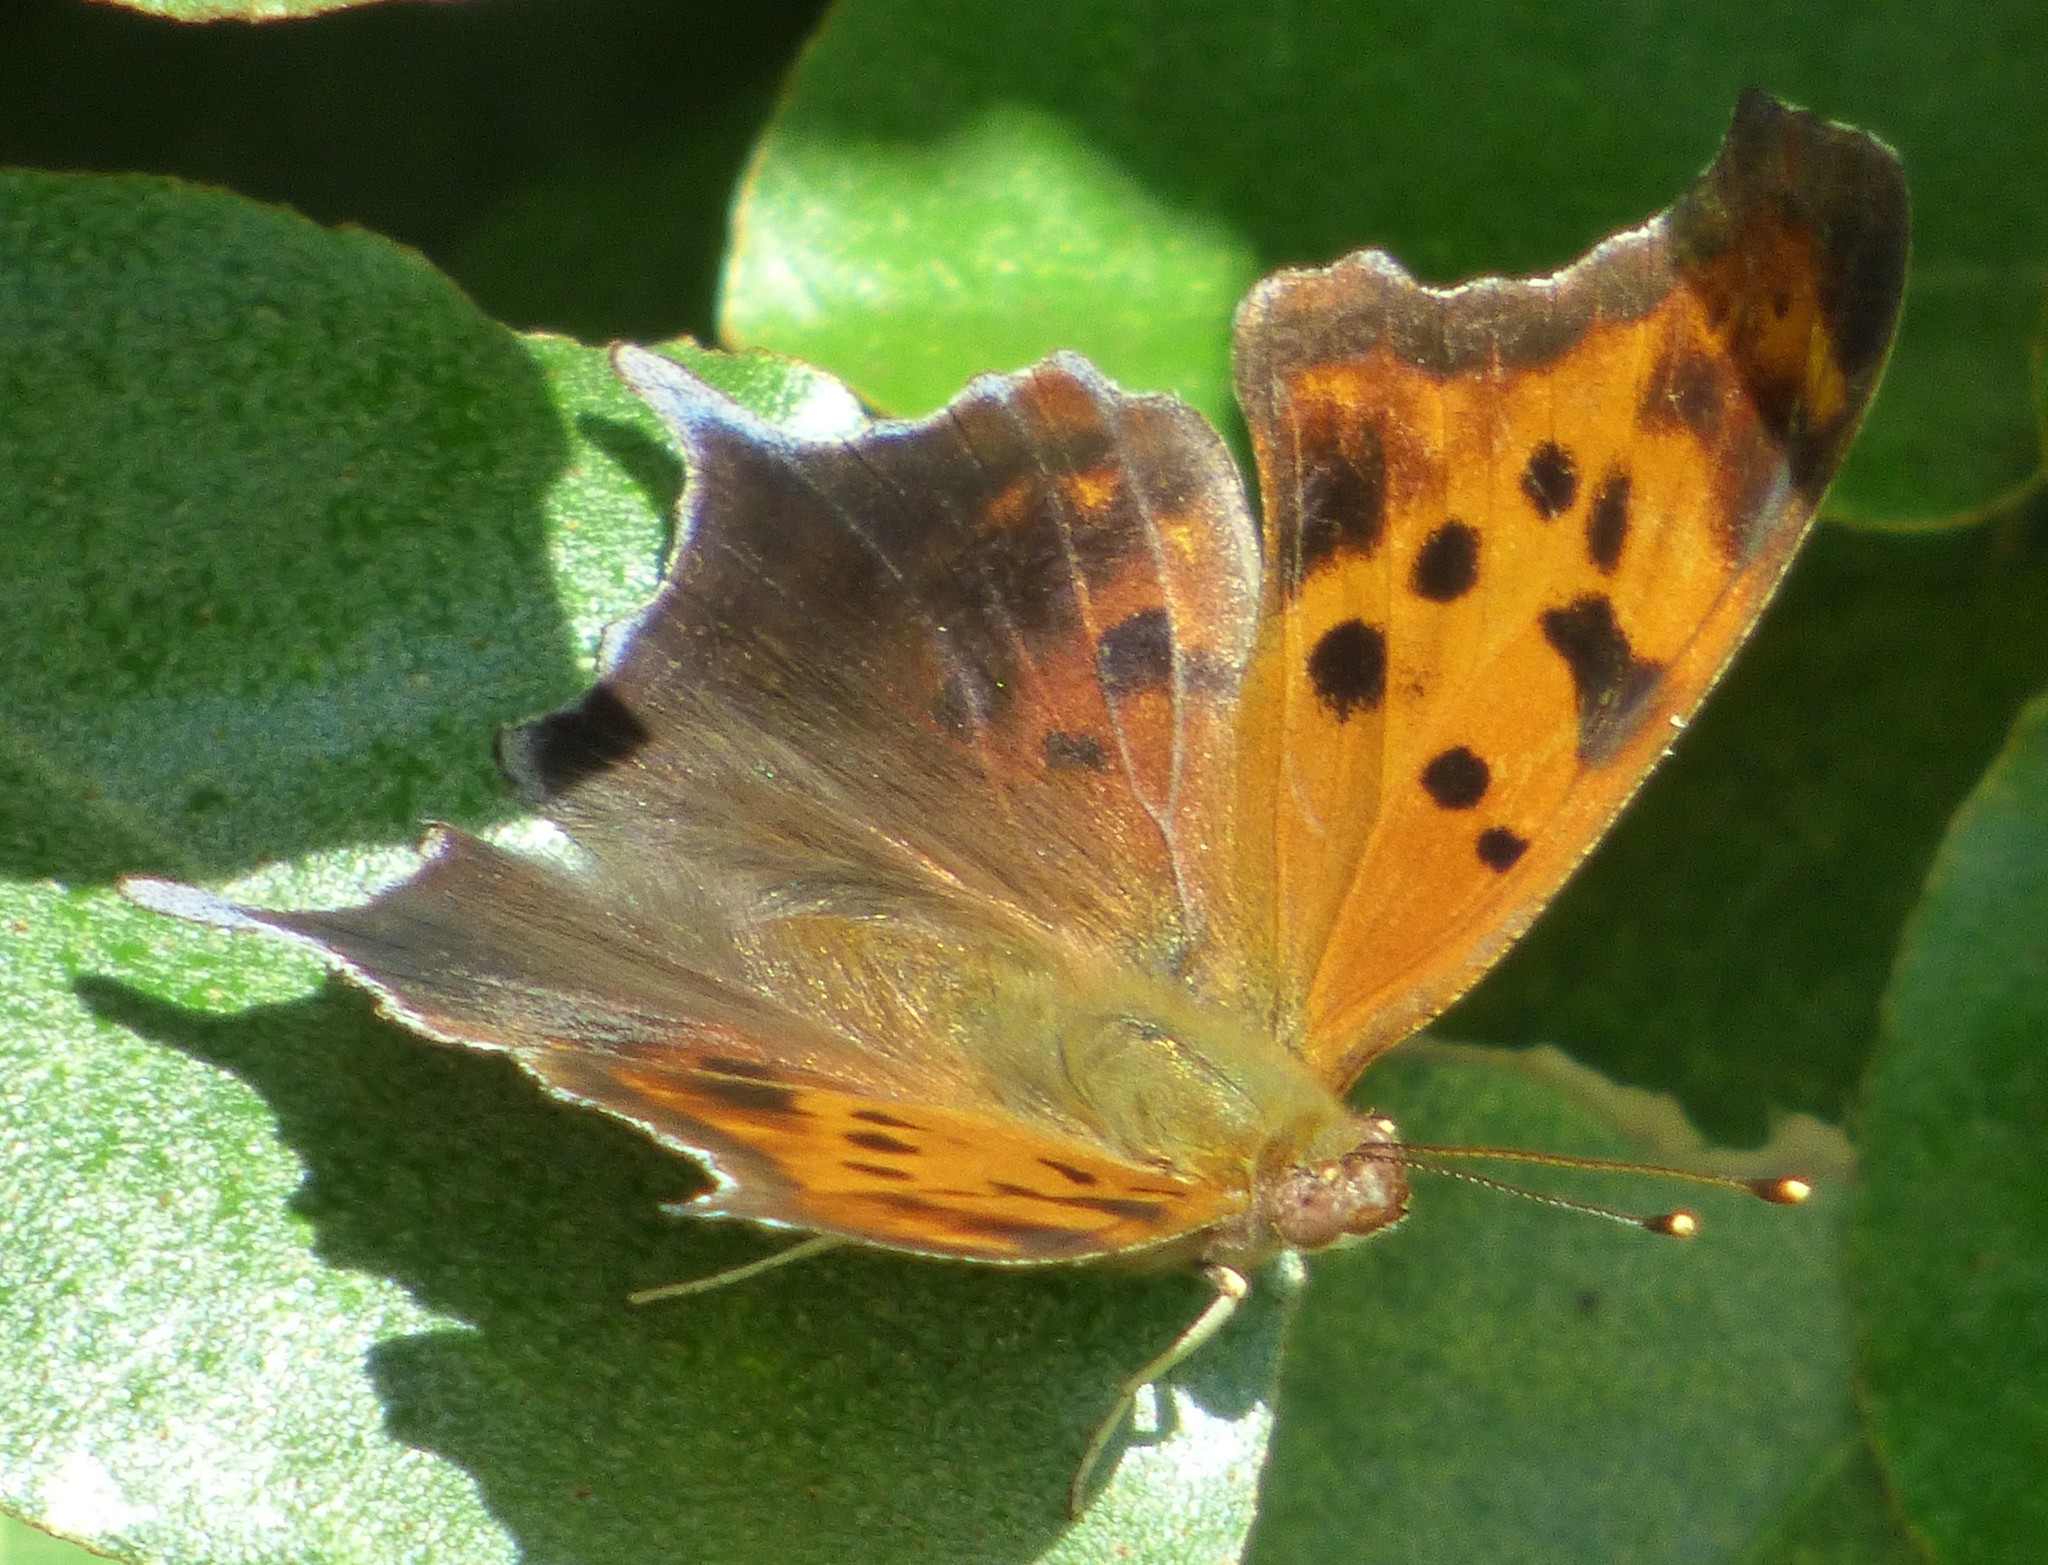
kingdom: Animalia
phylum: Arthropoda
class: Insecta
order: Lepidoptera
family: Nymphalidae
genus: Polygonia
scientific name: Polygonia interrogationis
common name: Question mark
